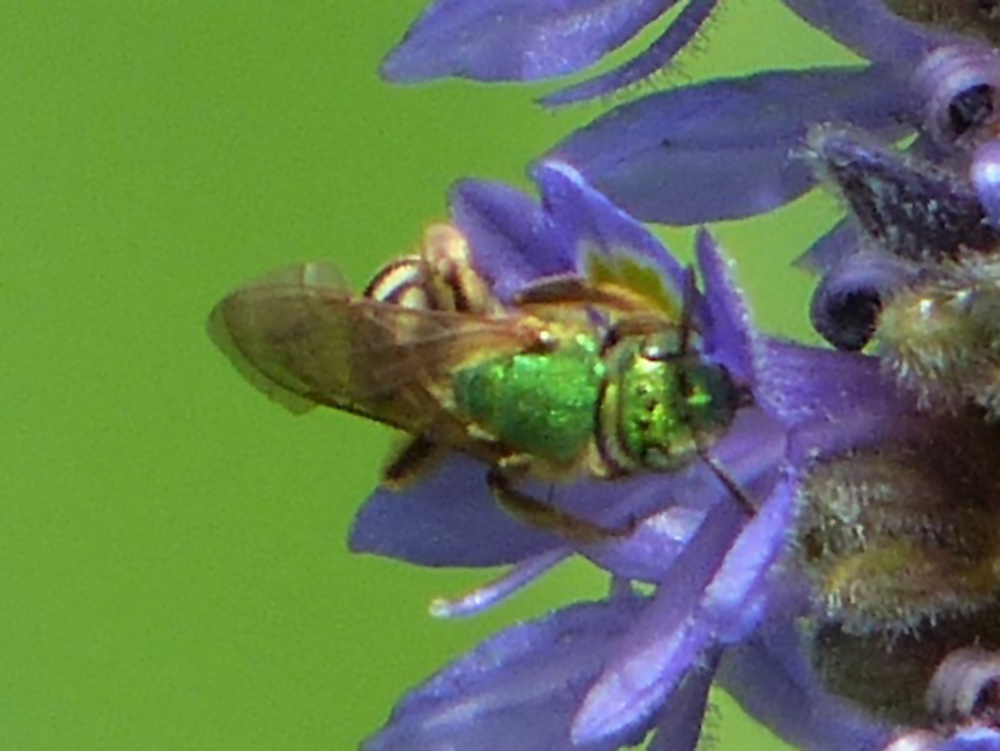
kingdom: Animalia
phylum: Arthropoda
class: Insecta
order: Hymenoptera
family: Halictidae
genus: Agapostemon
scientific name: Agapostemon virescens
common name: Bicolored striped sweat bee
